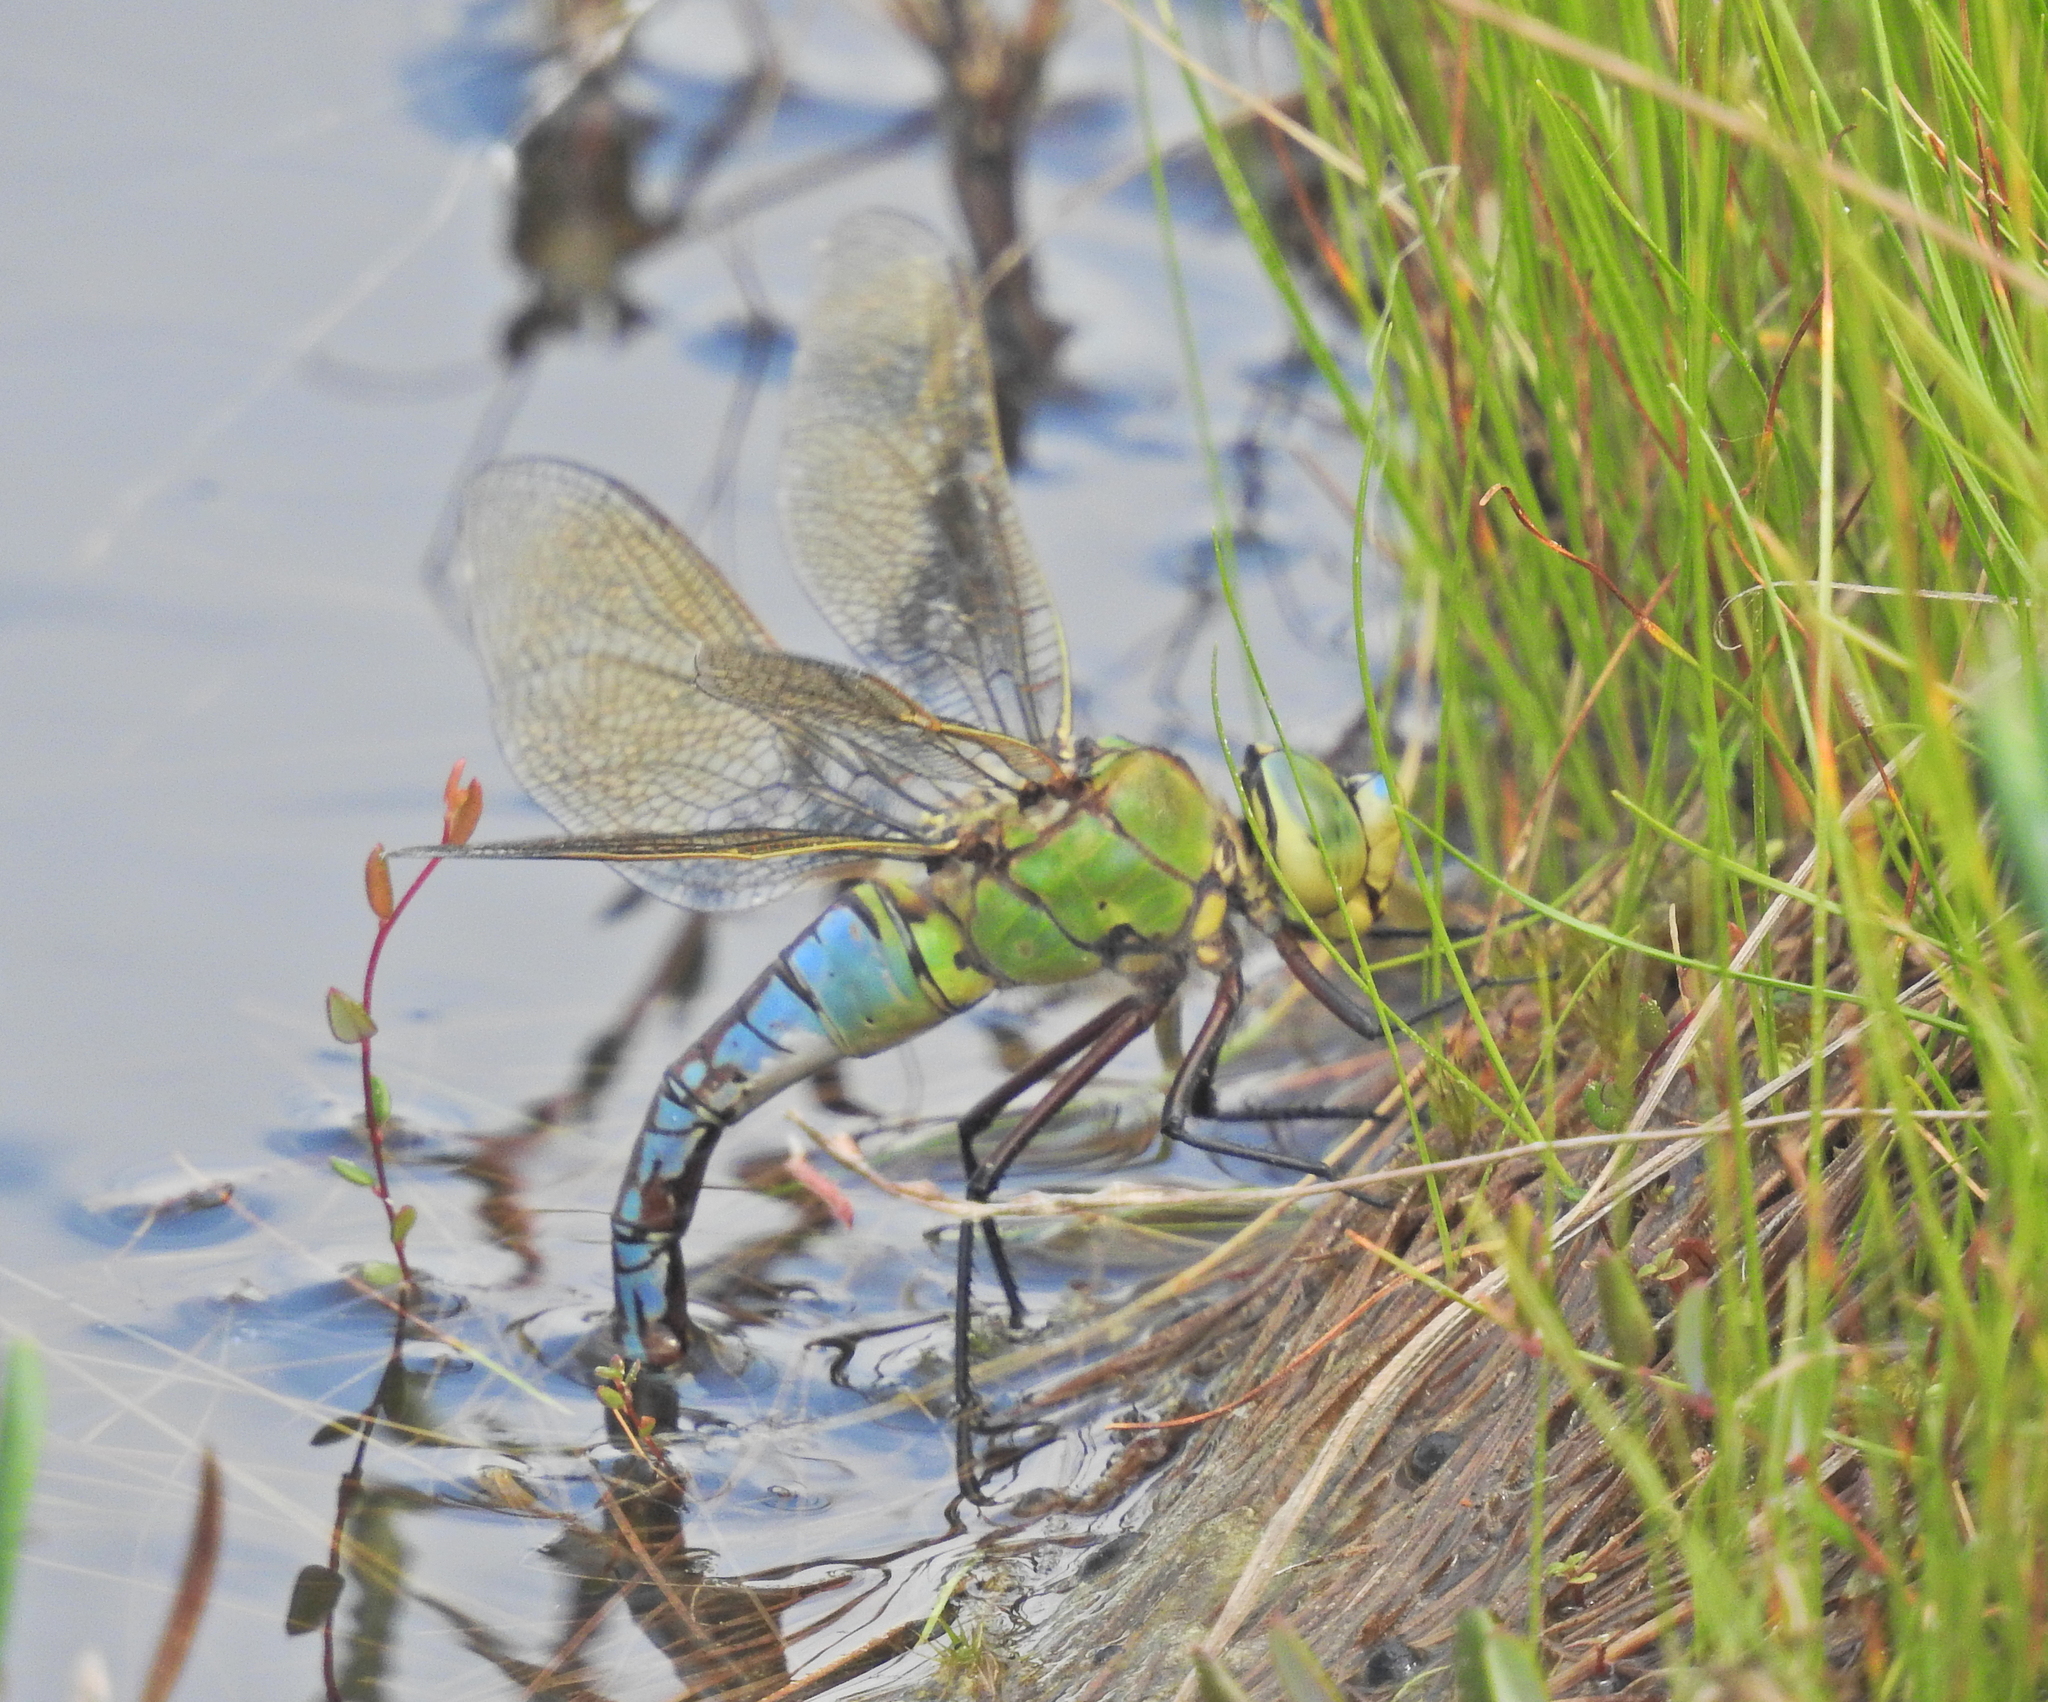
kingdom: Animalia
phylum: Arthropoda
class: Insecta
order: Odonata
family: Aeshnidae
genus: Anax
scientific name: Anax imperator
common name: Emperor dragonfly
